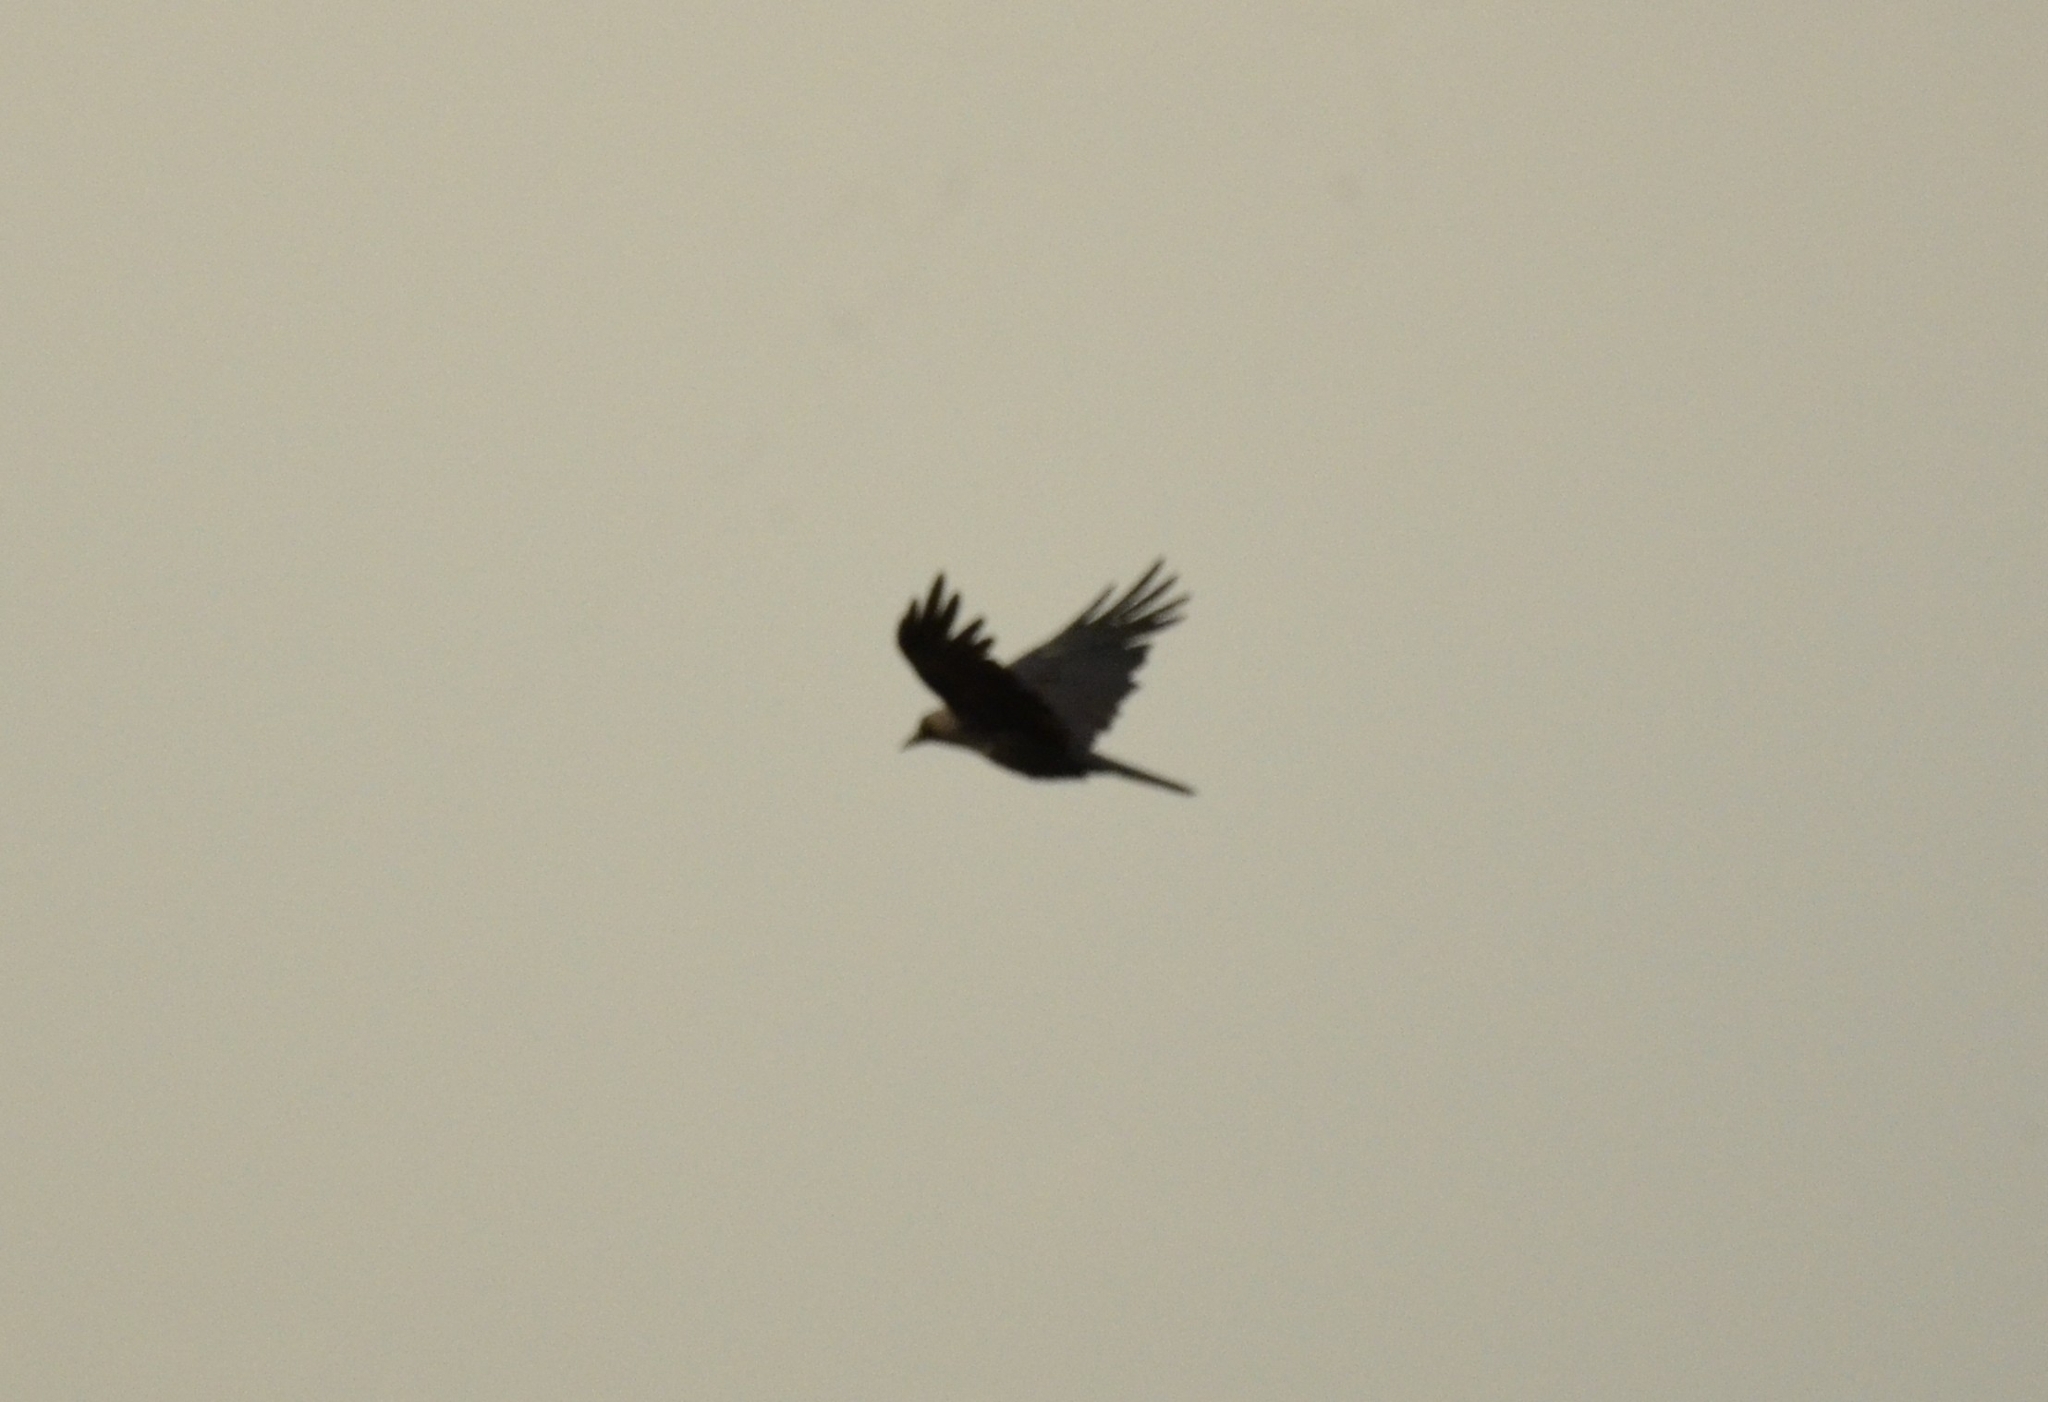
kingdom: Animalia
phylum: Chordata
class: Aves
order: Passeriformes
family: Corvidae
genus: Corvus
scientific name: Corvus splendens
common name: House crow
